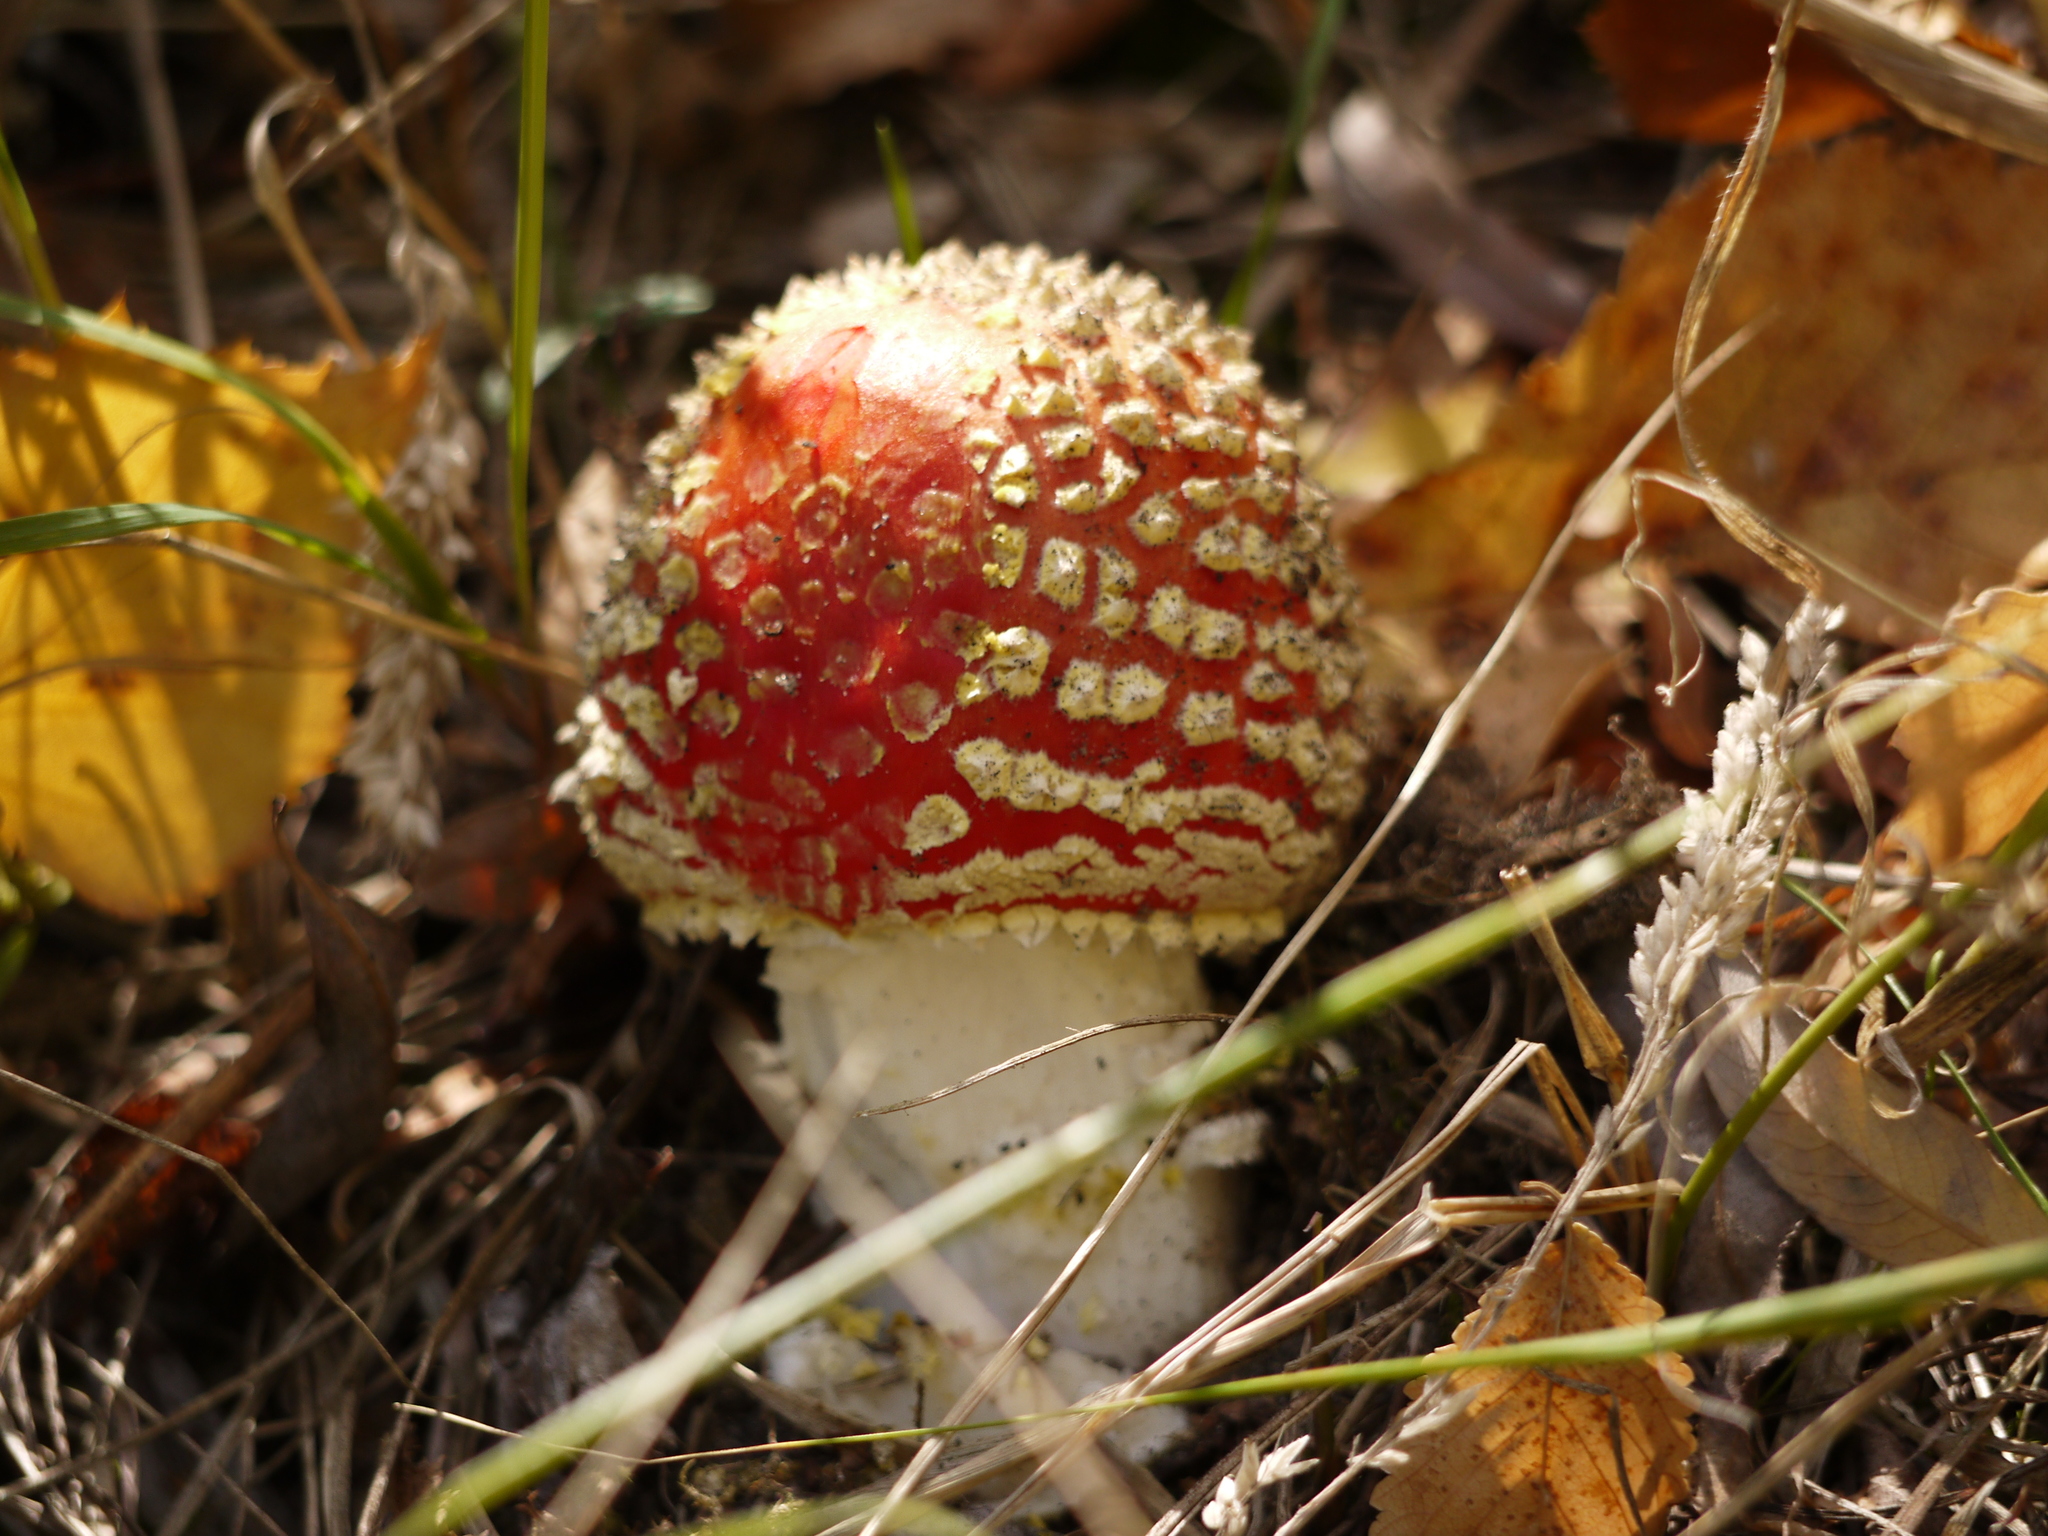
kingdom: Fungi
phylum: Basidiomycota
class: Agaricomycetes
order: Agaricales
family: Amanitaceae
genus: Amanita
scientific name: Amanita muscaria
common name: Fly agaric
